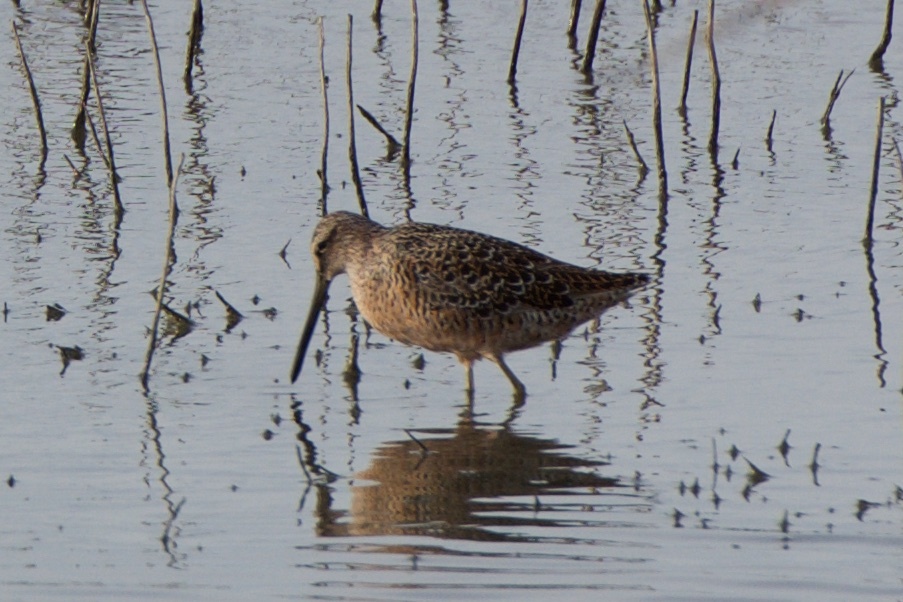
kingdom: Animalia
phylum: Chordata
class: Aves
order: Charadriiformes
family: Scolopacidae
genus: Limnodromus
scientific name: Limnodromus scolopaceus
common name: Long-billed dowitcher
